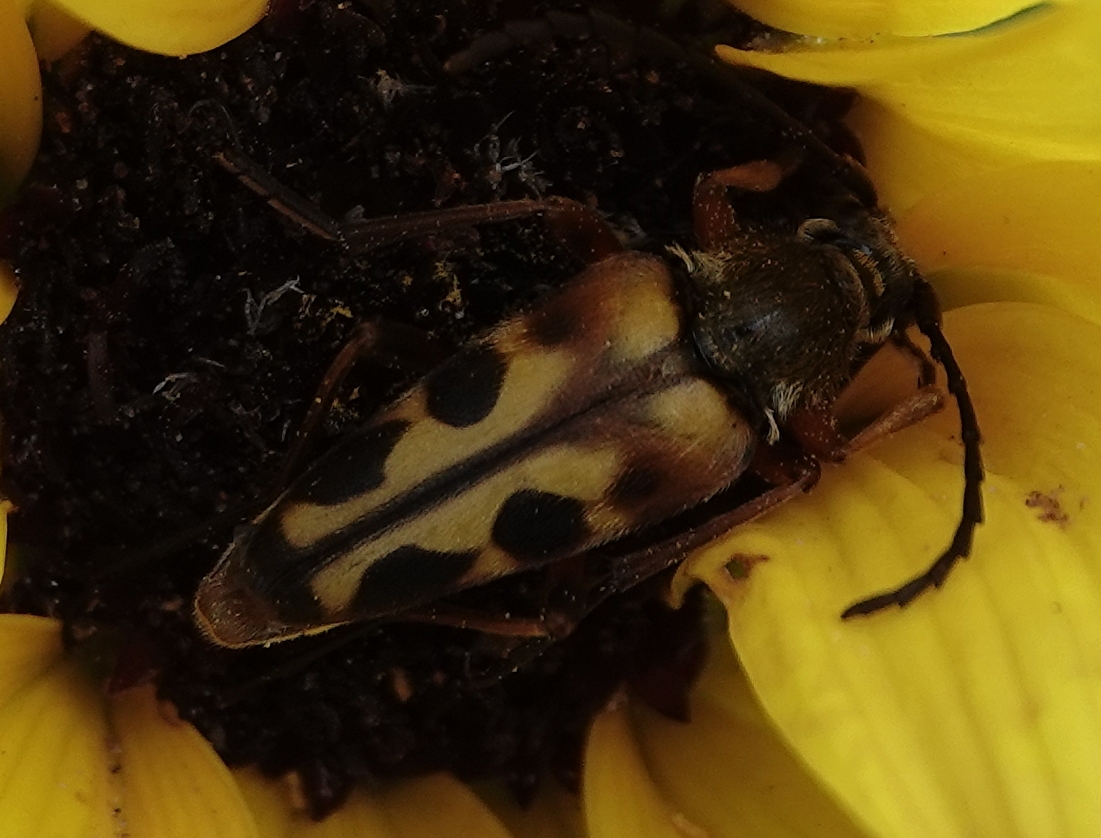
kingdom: Animalia
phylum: Arthropoda
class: Insecta
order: Coleoptera
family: Cerambycidae
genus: Typocerus
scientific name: Typocerus octonotatus
